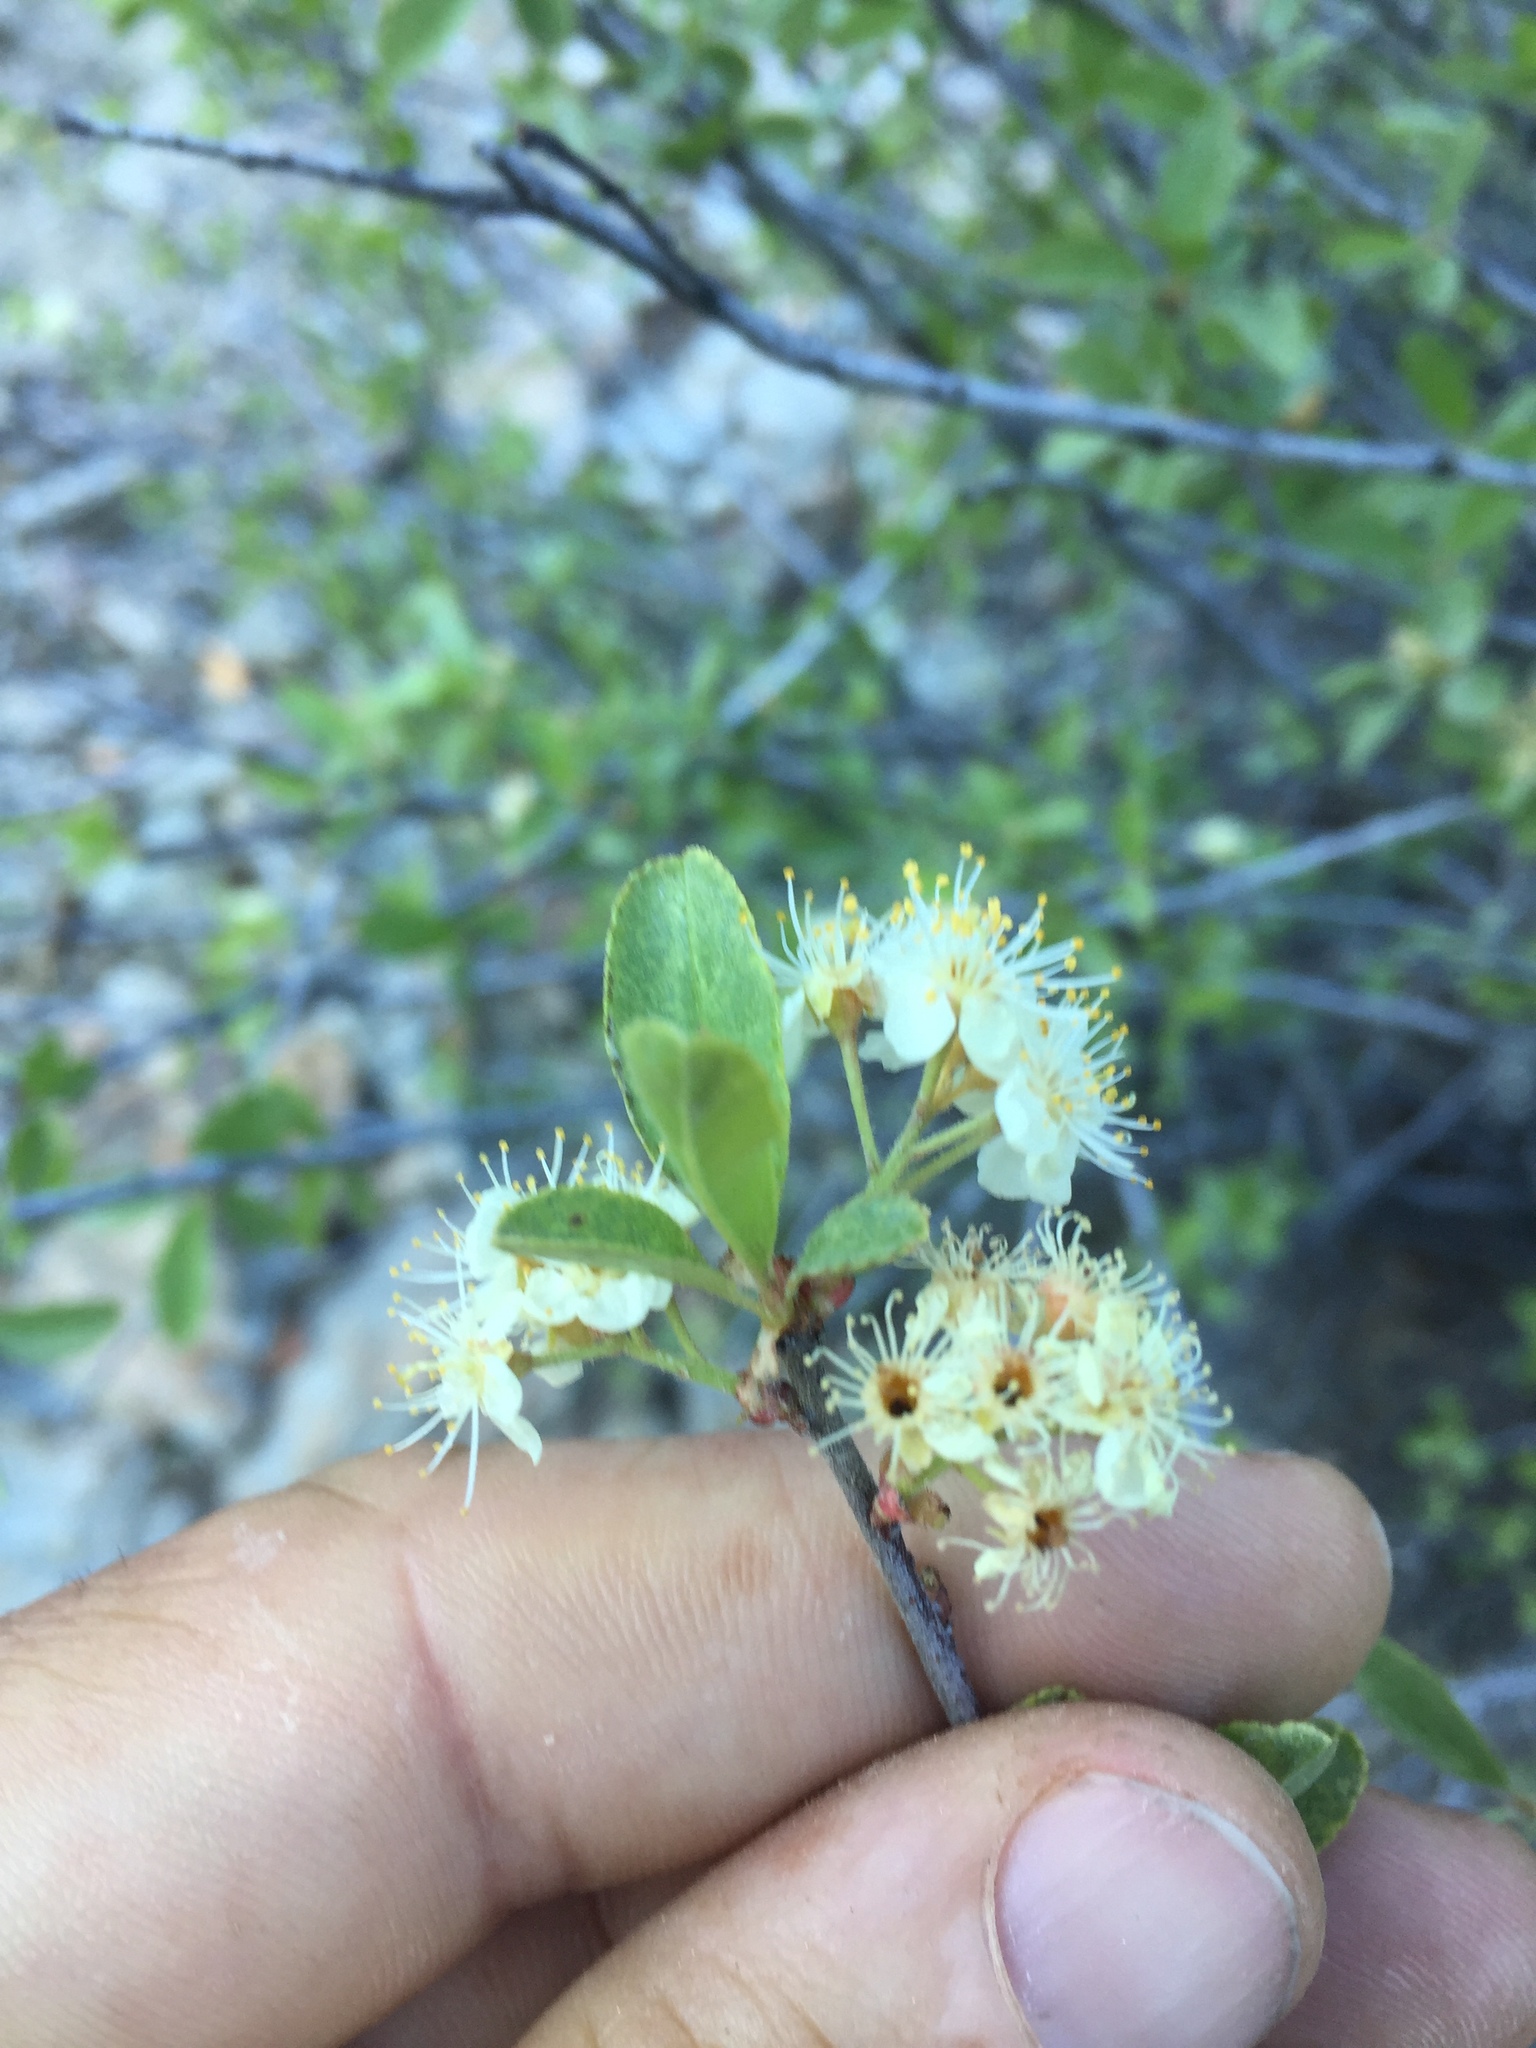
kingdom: Plantae
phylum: Tracheophyta
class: Magnoliopsida
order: Rosales
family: Rosaceae
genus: Prunus
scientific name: Prunus emarginata
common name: Bitter cherry
